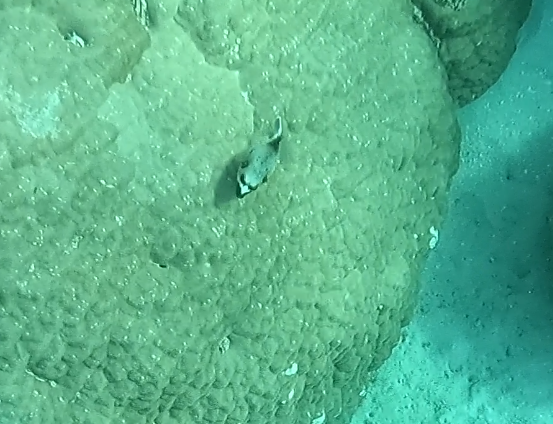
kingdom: Animalia
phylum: Chordata
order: Tetraodontiformes
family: Tetraodontidae
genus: Arothron
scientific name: Arothron nigropunctatus
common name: Black spotted blow fish
